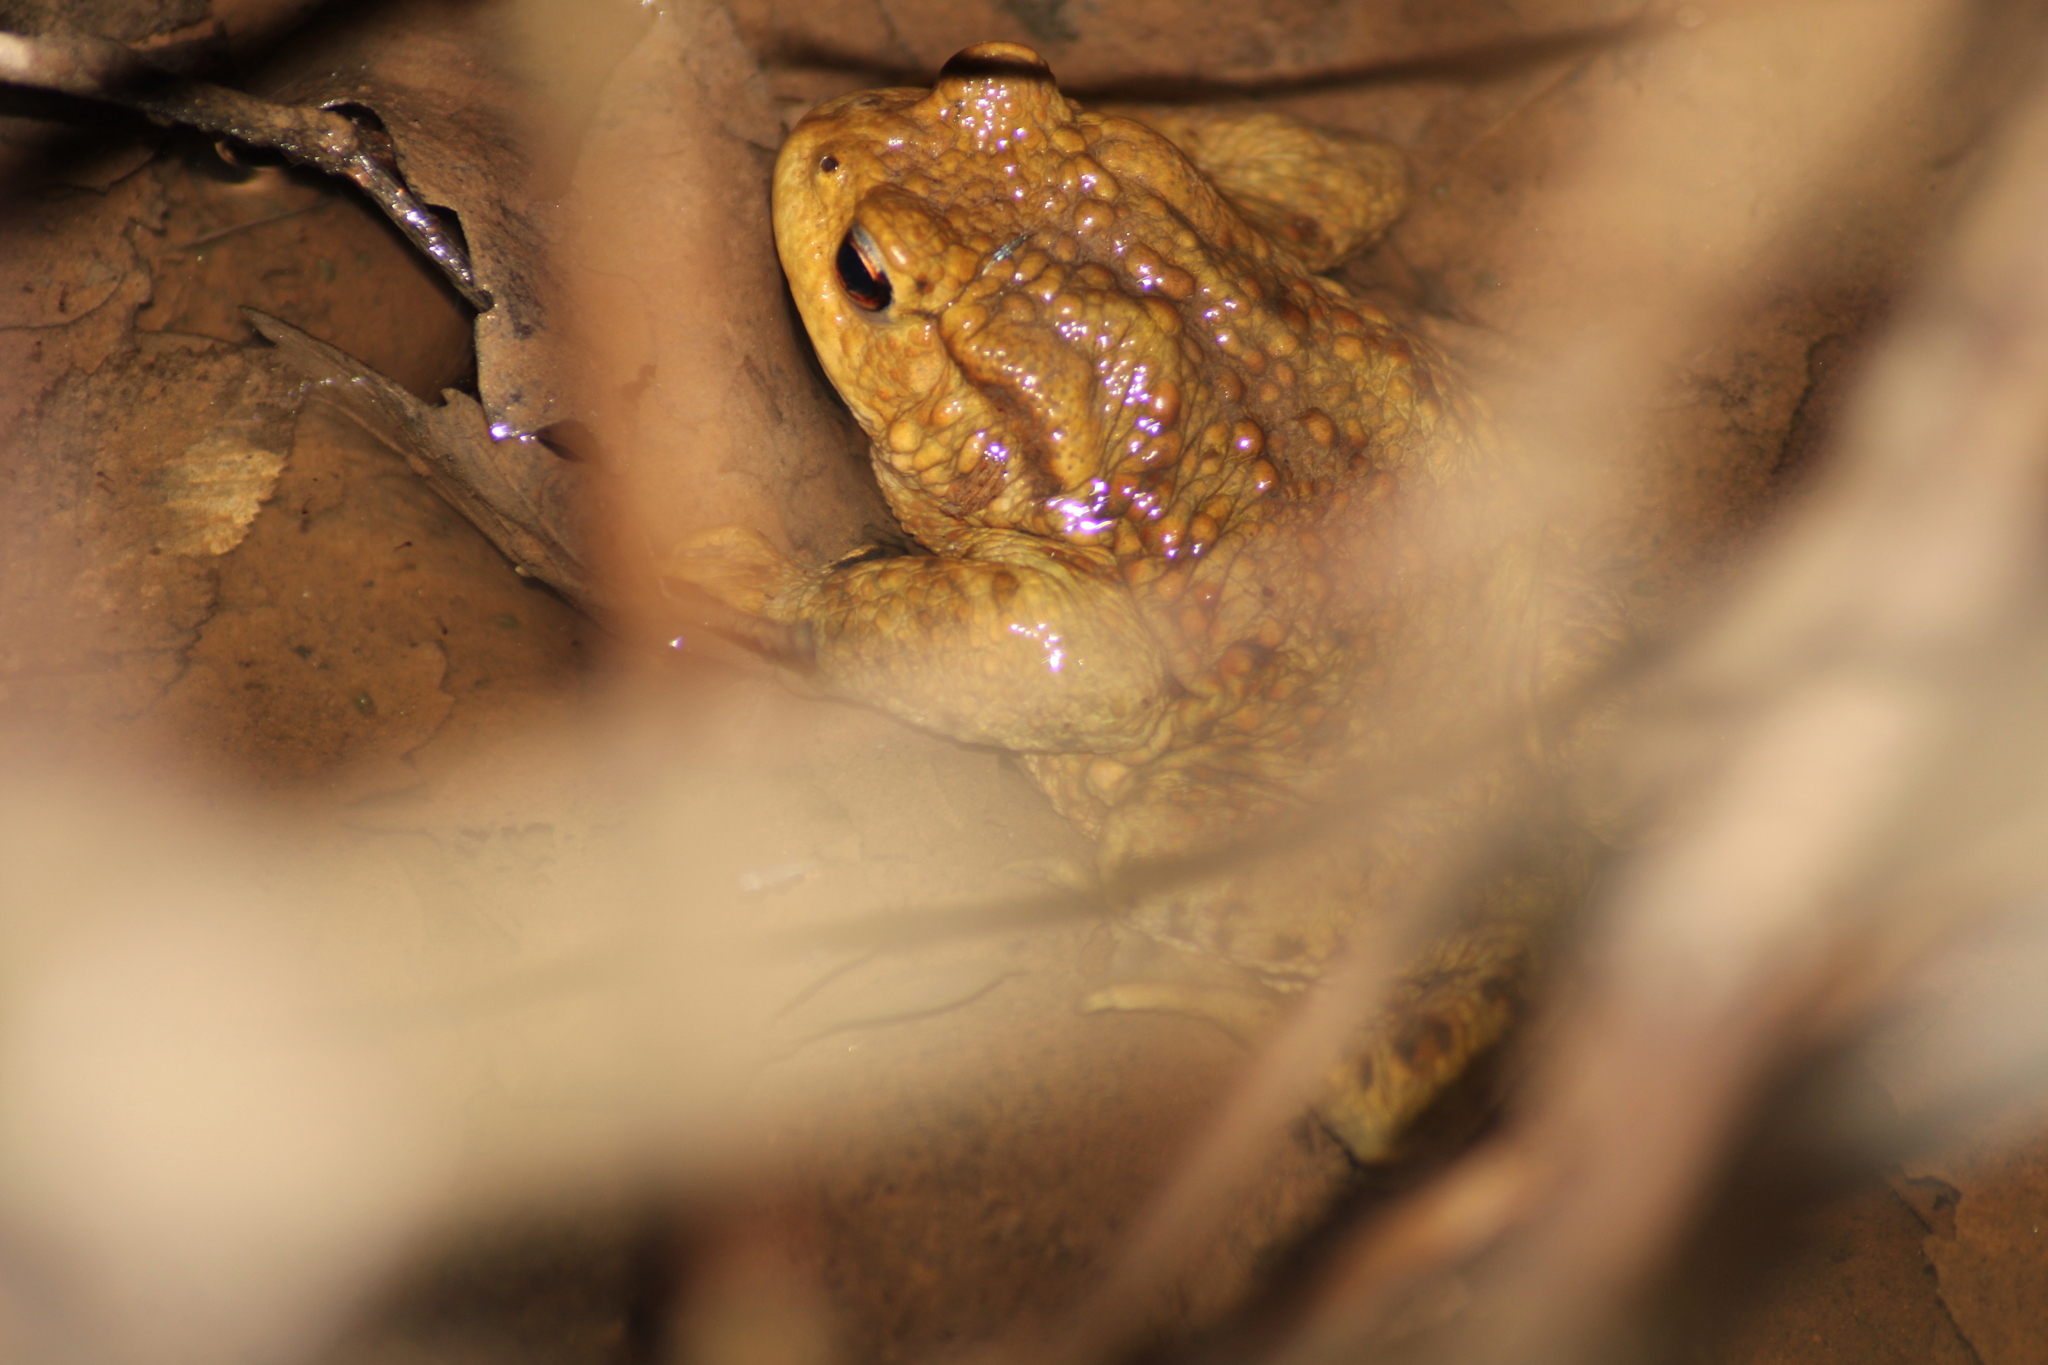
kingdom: Animalia
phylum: Chordata
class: Amphibia
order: Anura
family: Bufonidae
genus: Bufo
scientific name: Bufo bufo
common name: Common toad
